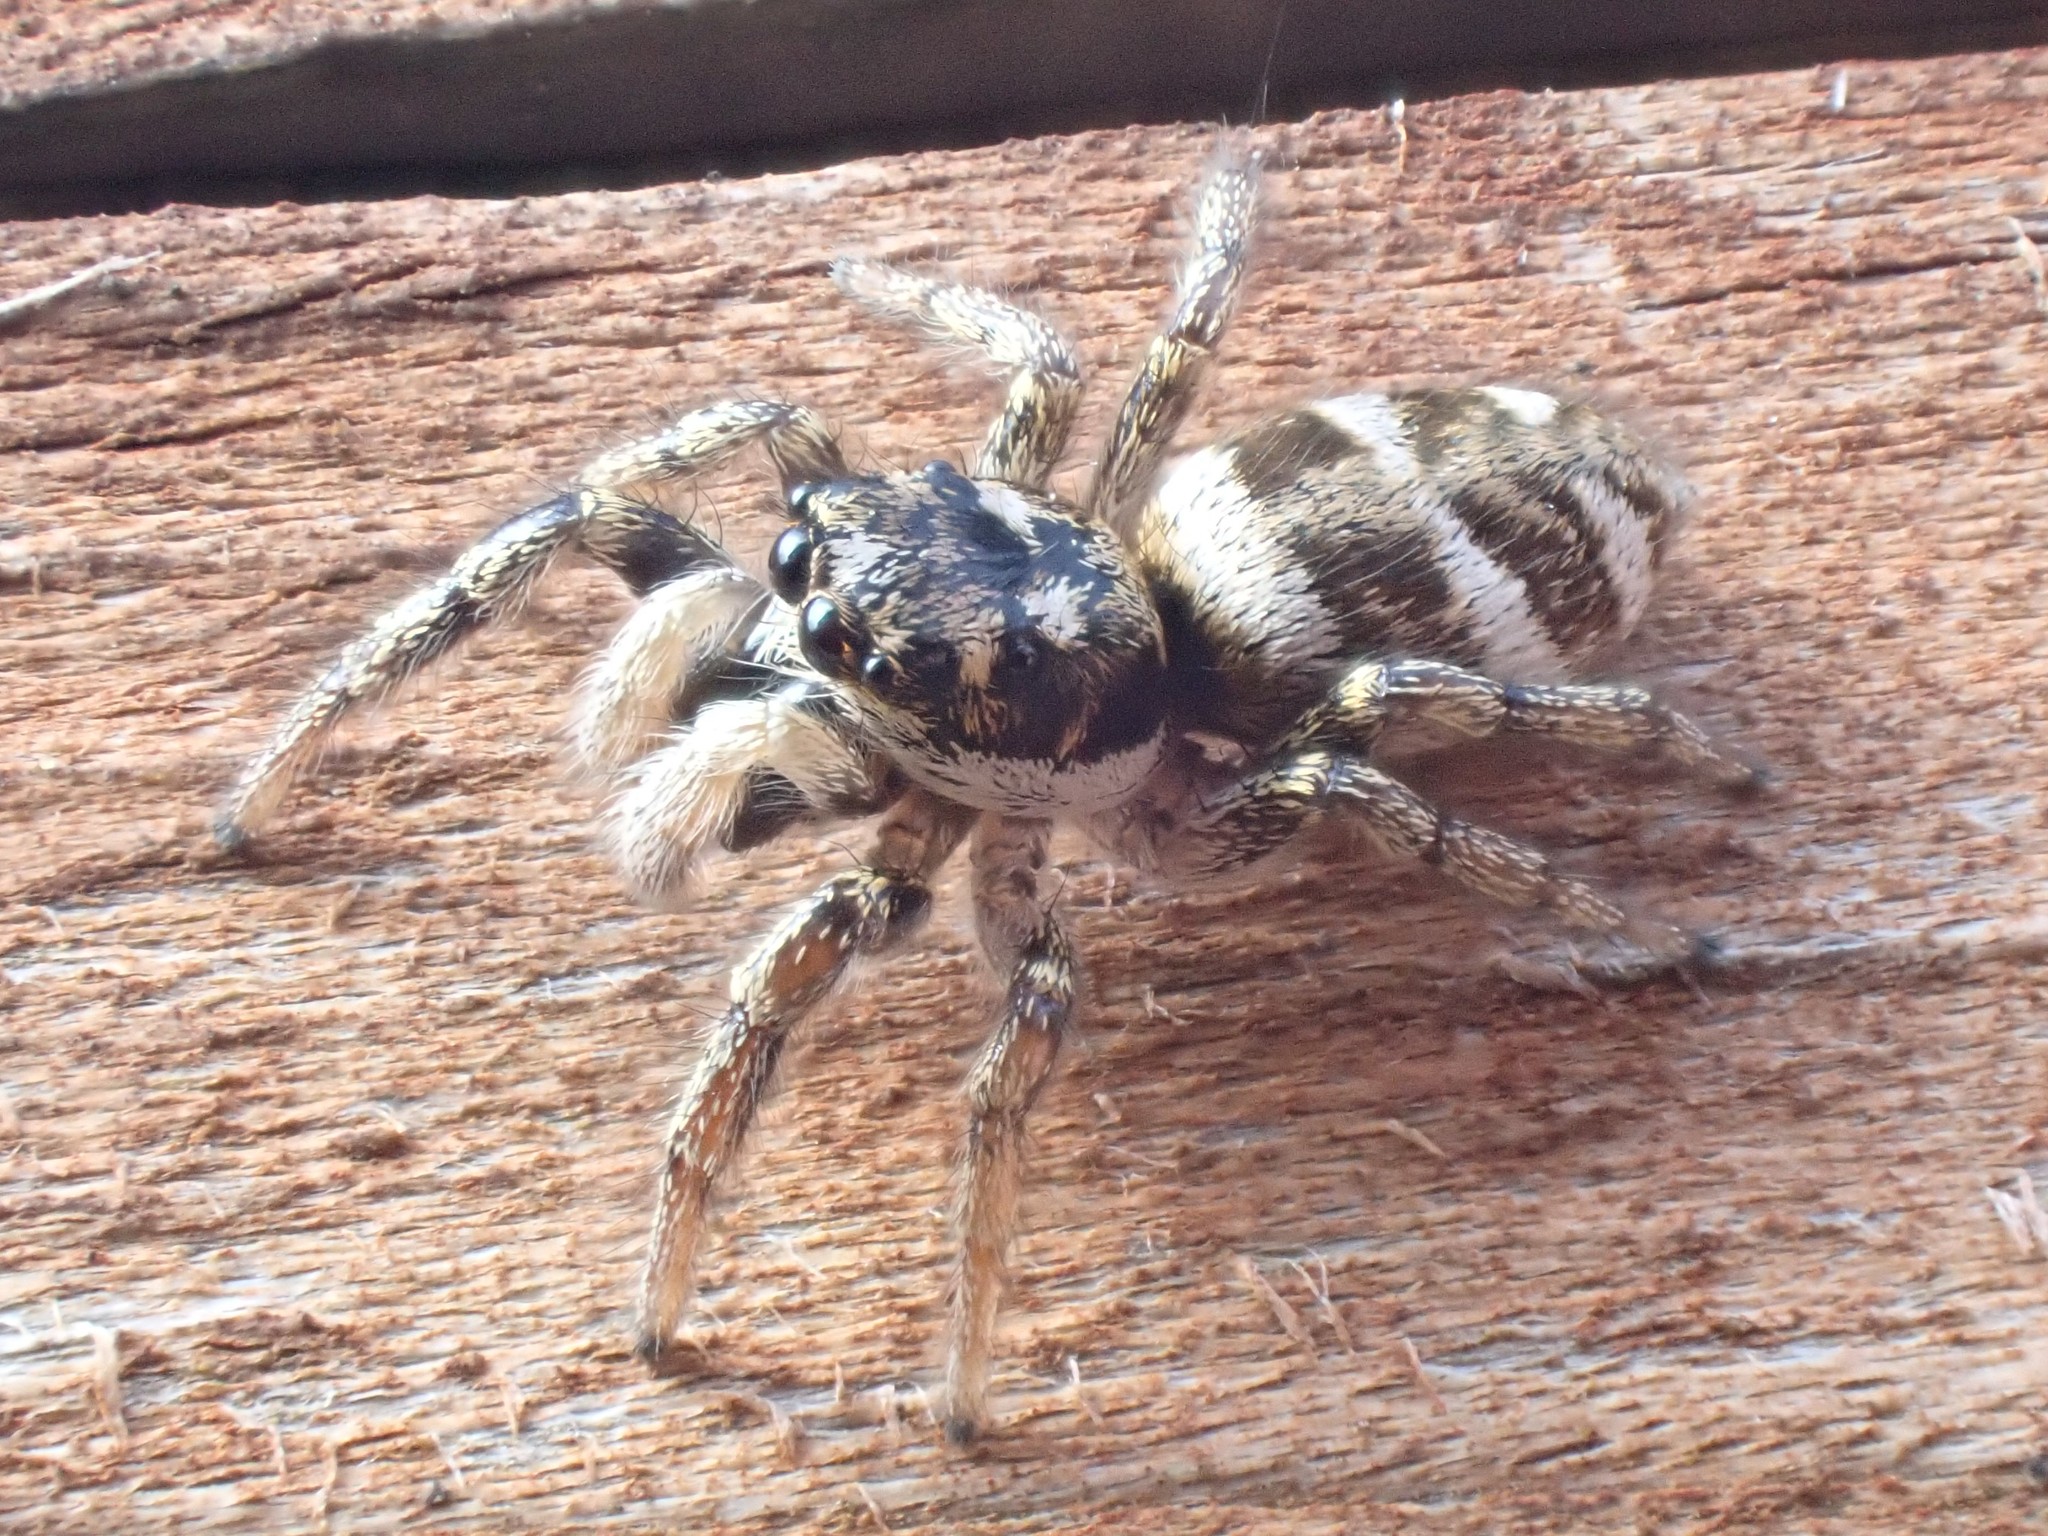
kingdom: Animalia
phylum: Arthropoda
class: Arachnida
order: Araneae
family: Salticidae
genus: Salticus
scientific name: Salticus scenicus
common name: Zebra jumper
